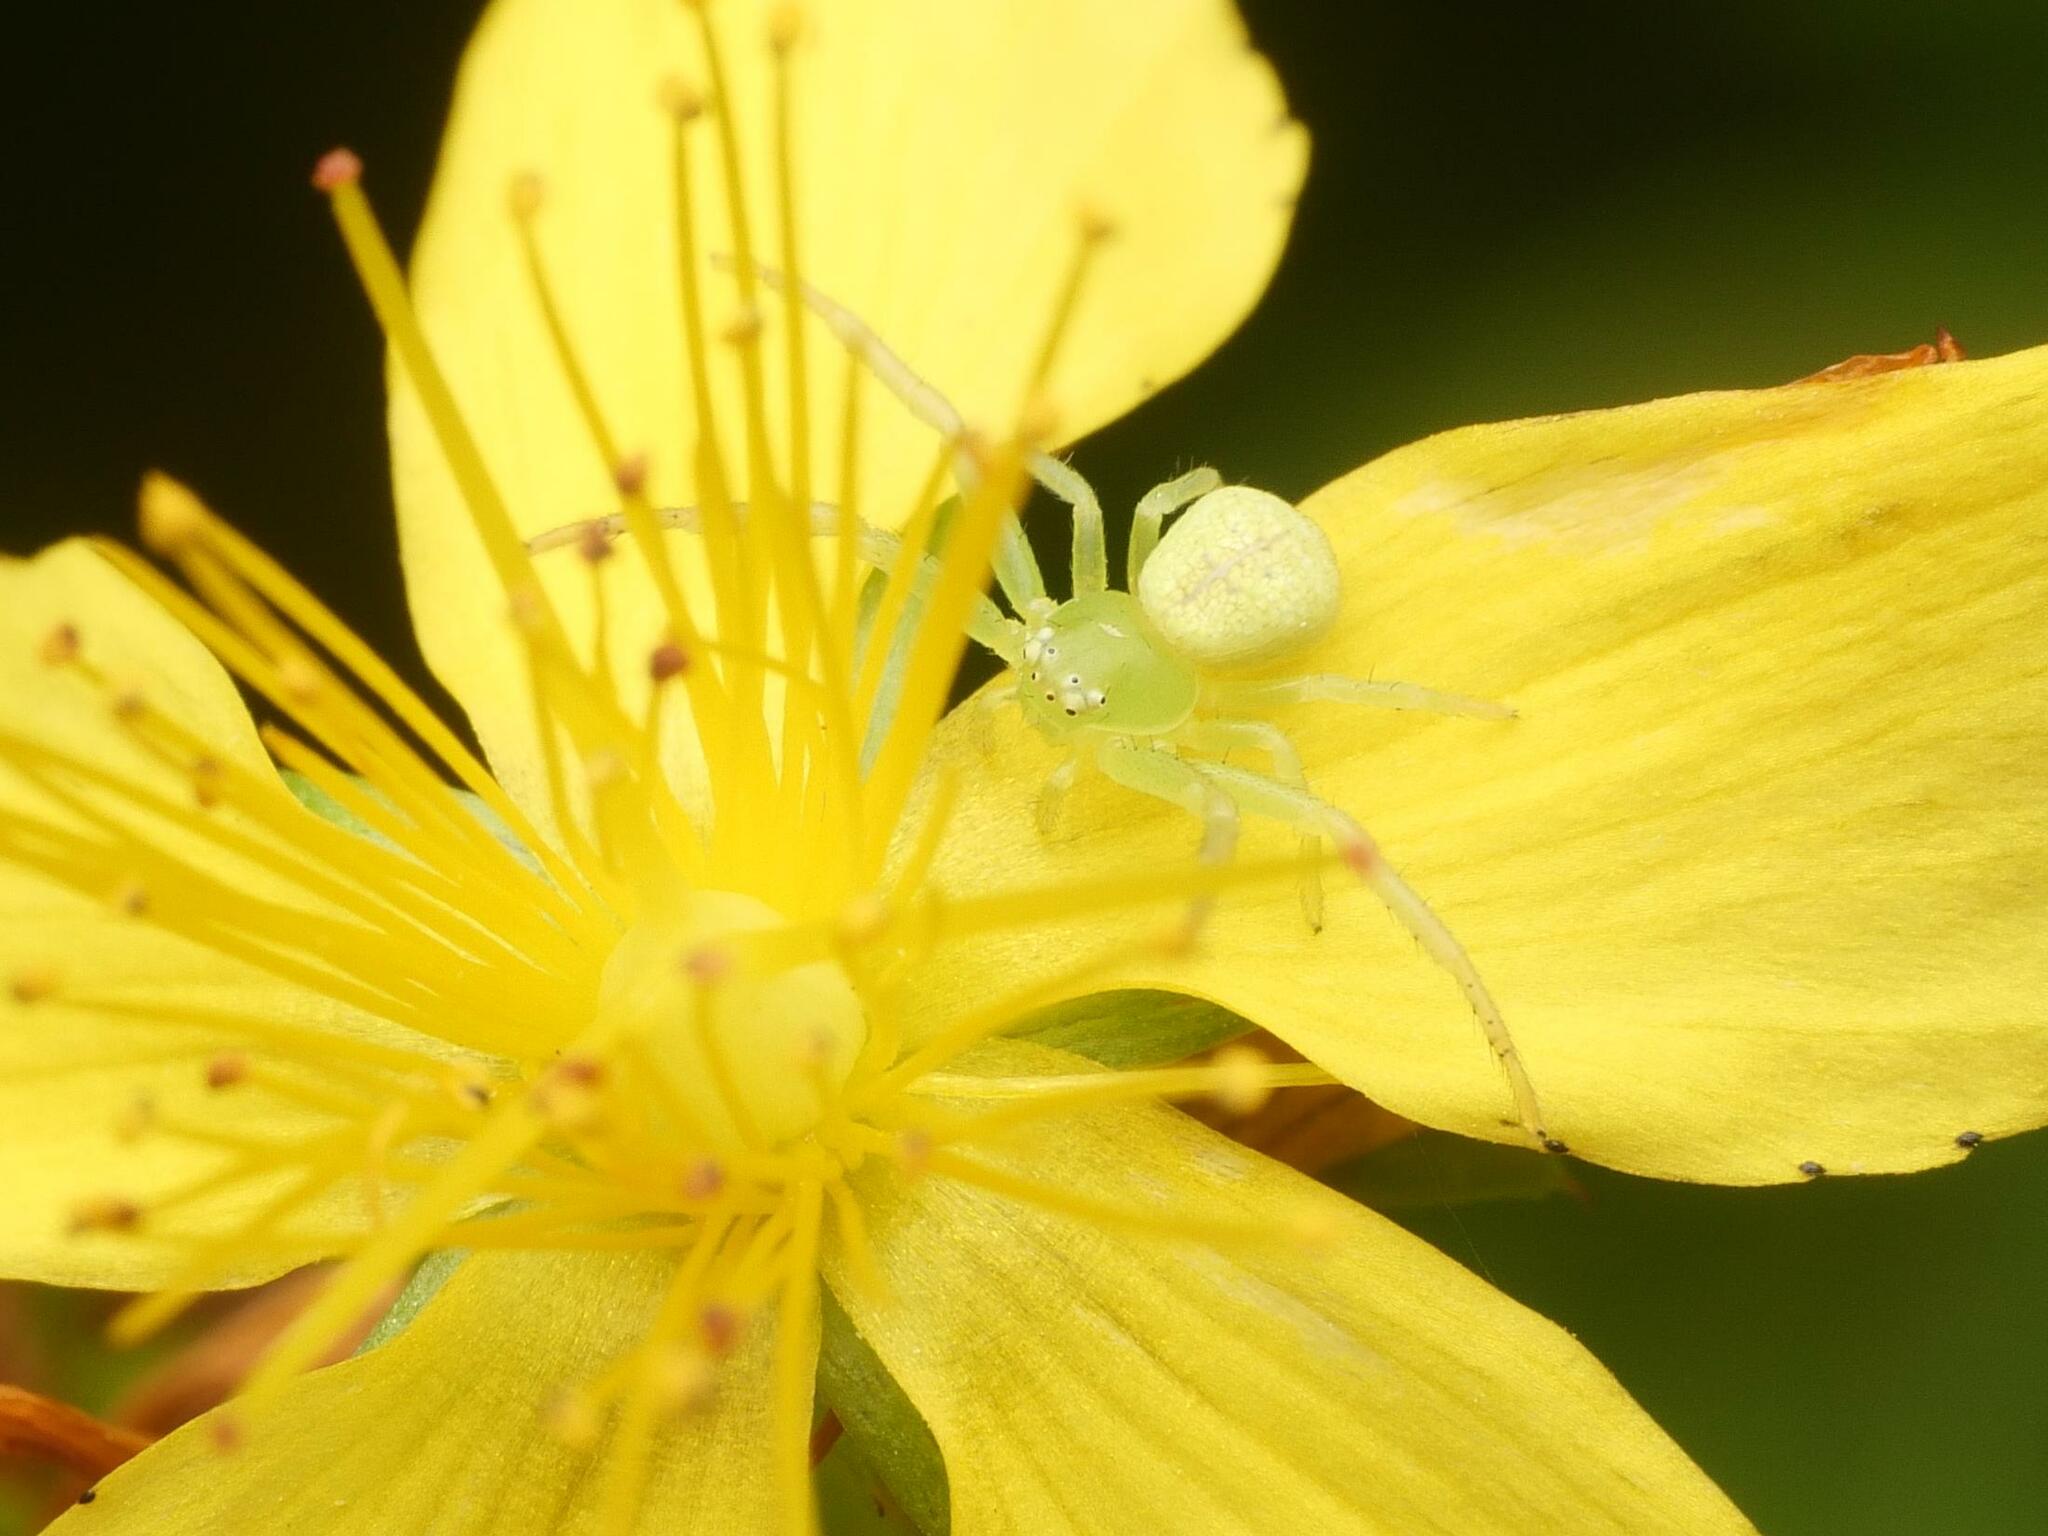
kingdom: Animalia
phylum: Arthropoda
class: Arachnida
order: Araneae
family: Thomisidae
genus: Ebrechtella
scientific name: Ebrechtella tricuspidata
